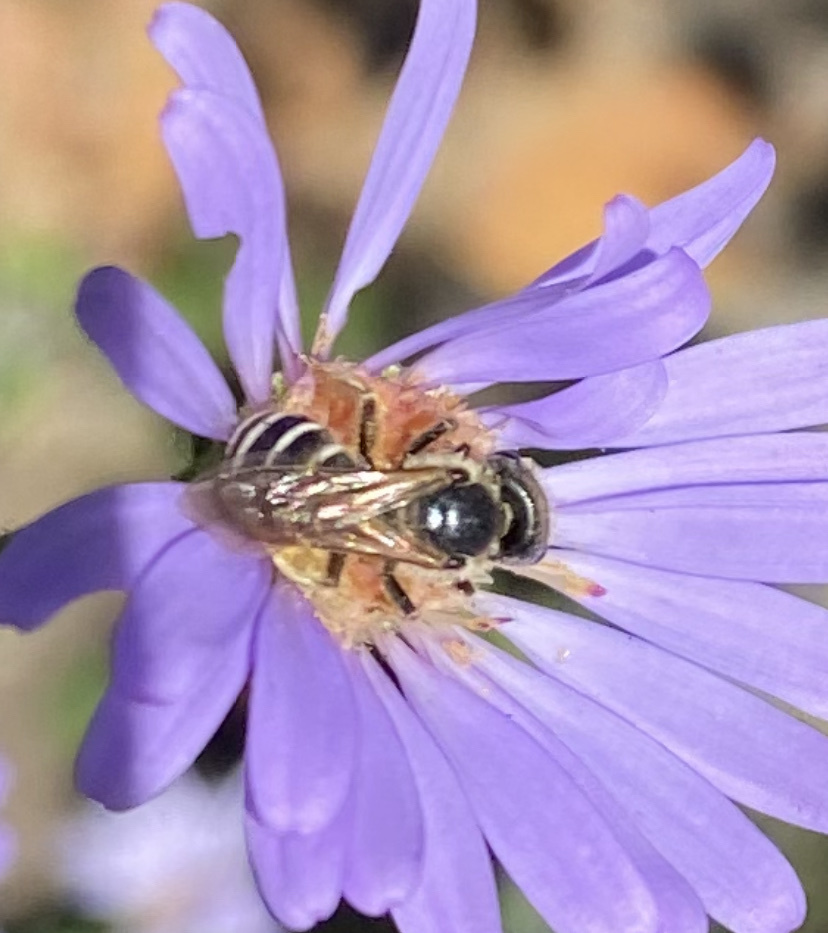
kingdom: Animalia
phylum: Arthropoda
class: Insecta
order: Hymenoptera
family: Halictidae
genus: Halictus
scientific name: Halictus ligatus
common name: Ligated furrow bee
